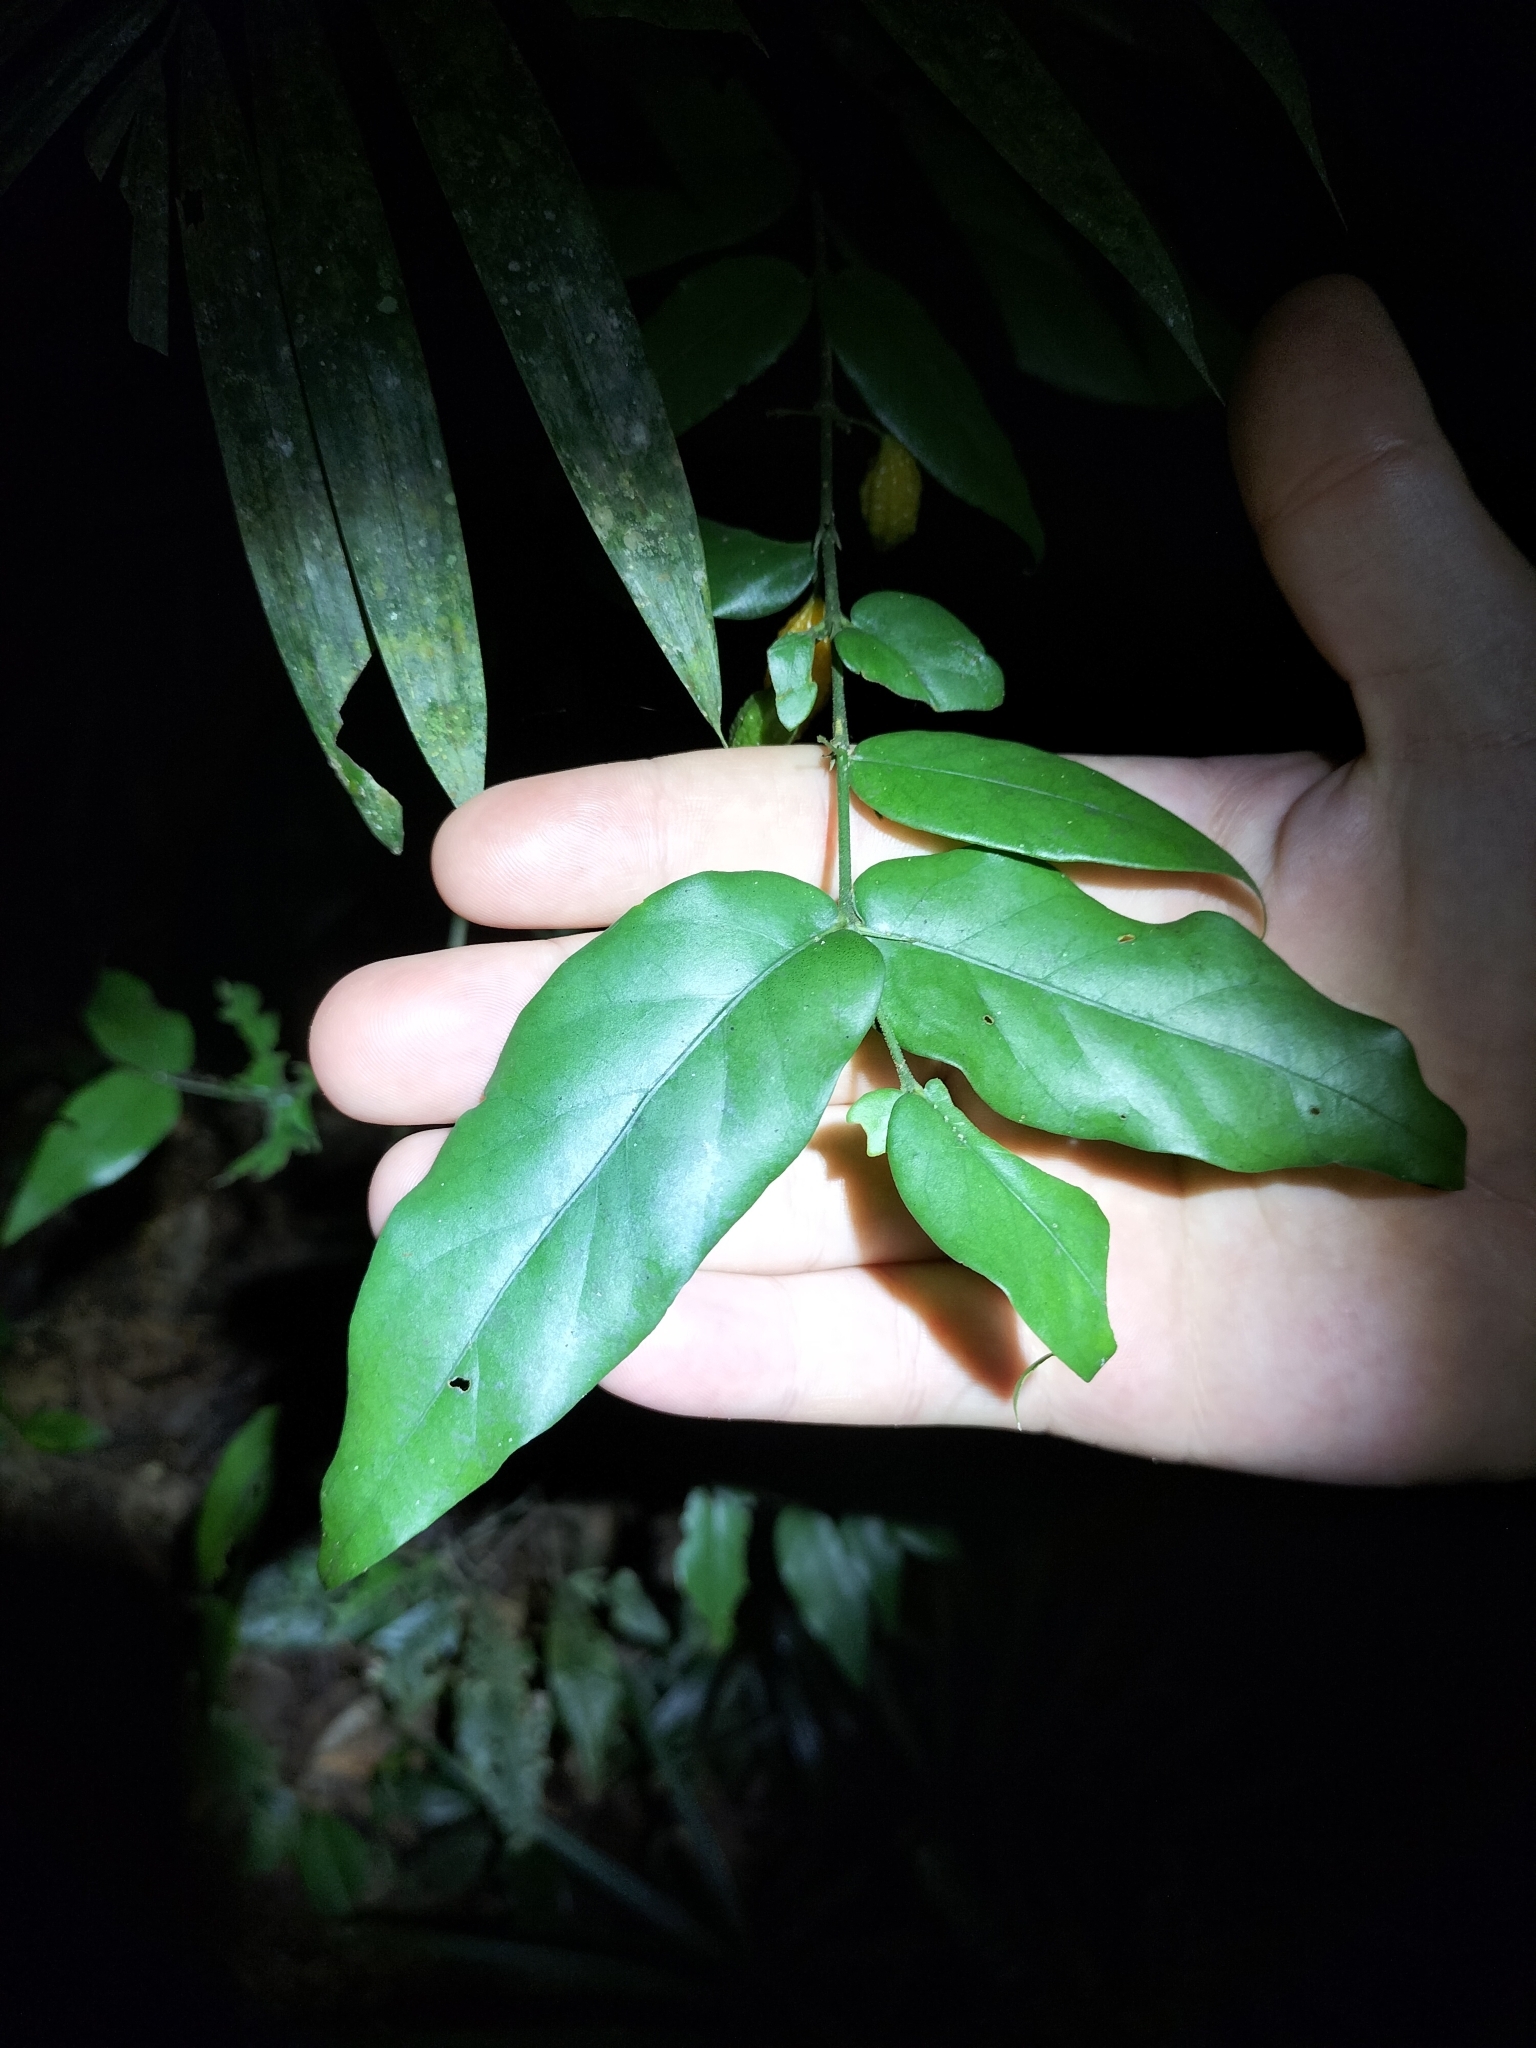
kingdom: Plantae
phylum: Tracheophyta
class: Magnoliopsida
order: Gentianales
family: Rubiaceae
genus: Randia
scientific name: Randia tuberculosa
